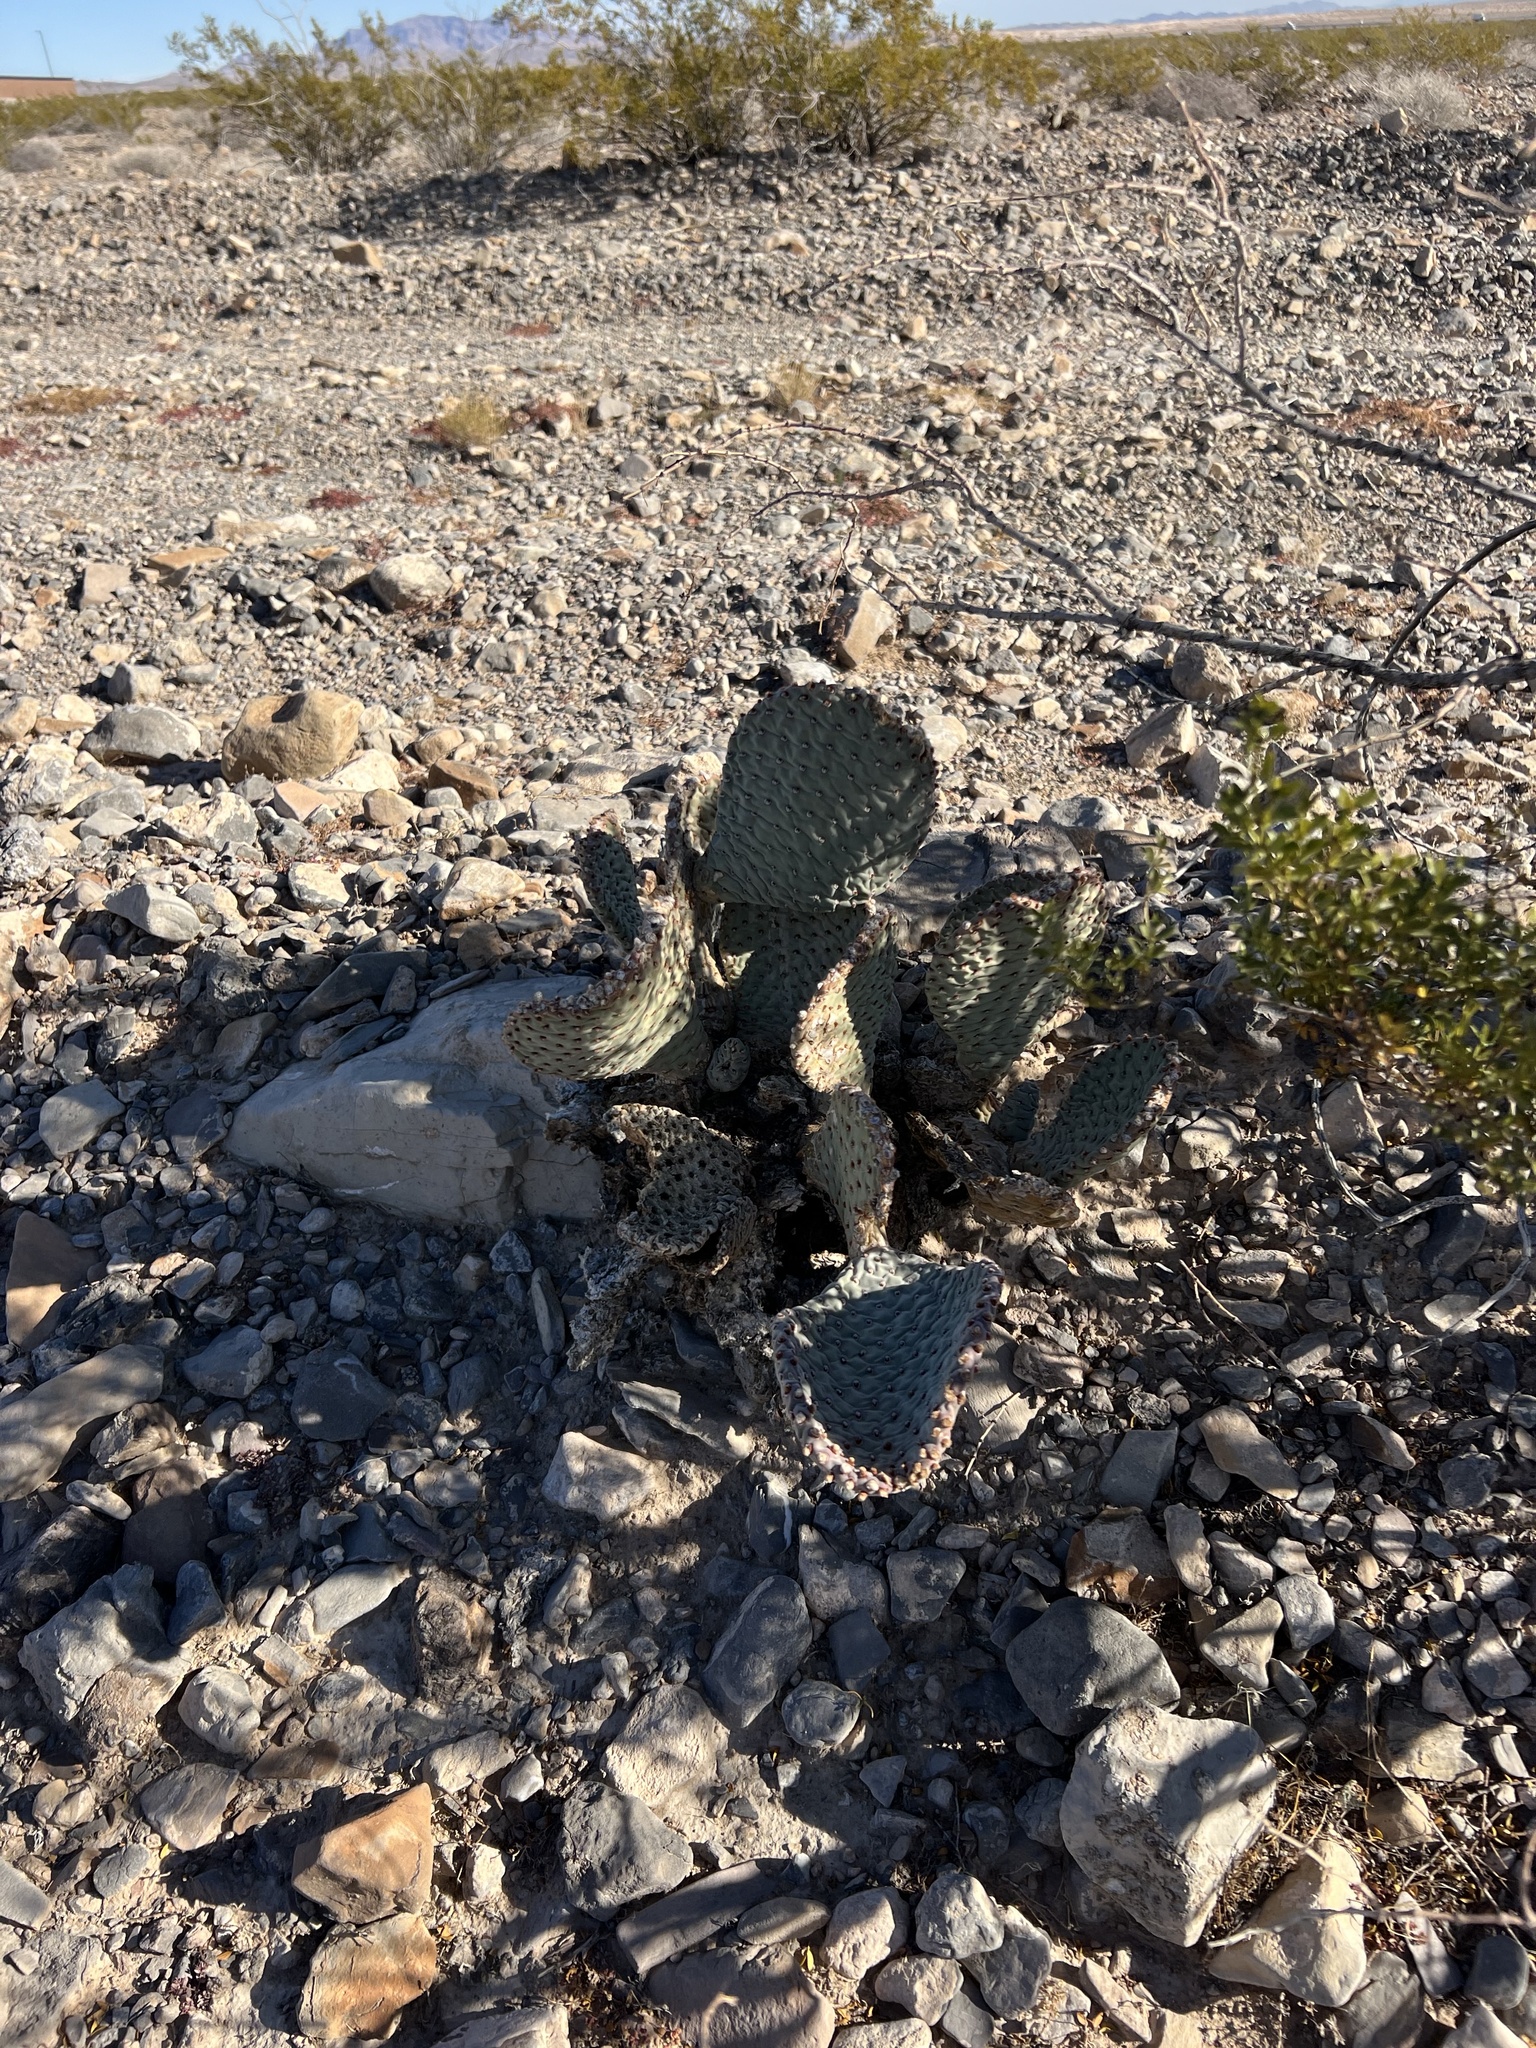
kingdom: Plantae
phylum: Tracheophyta
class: Magnoliopsida
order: Caryophyllales
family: Cactaceae
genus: Opuntia
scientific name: Opuntia basilaris
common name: Beavertail prickly-pear
